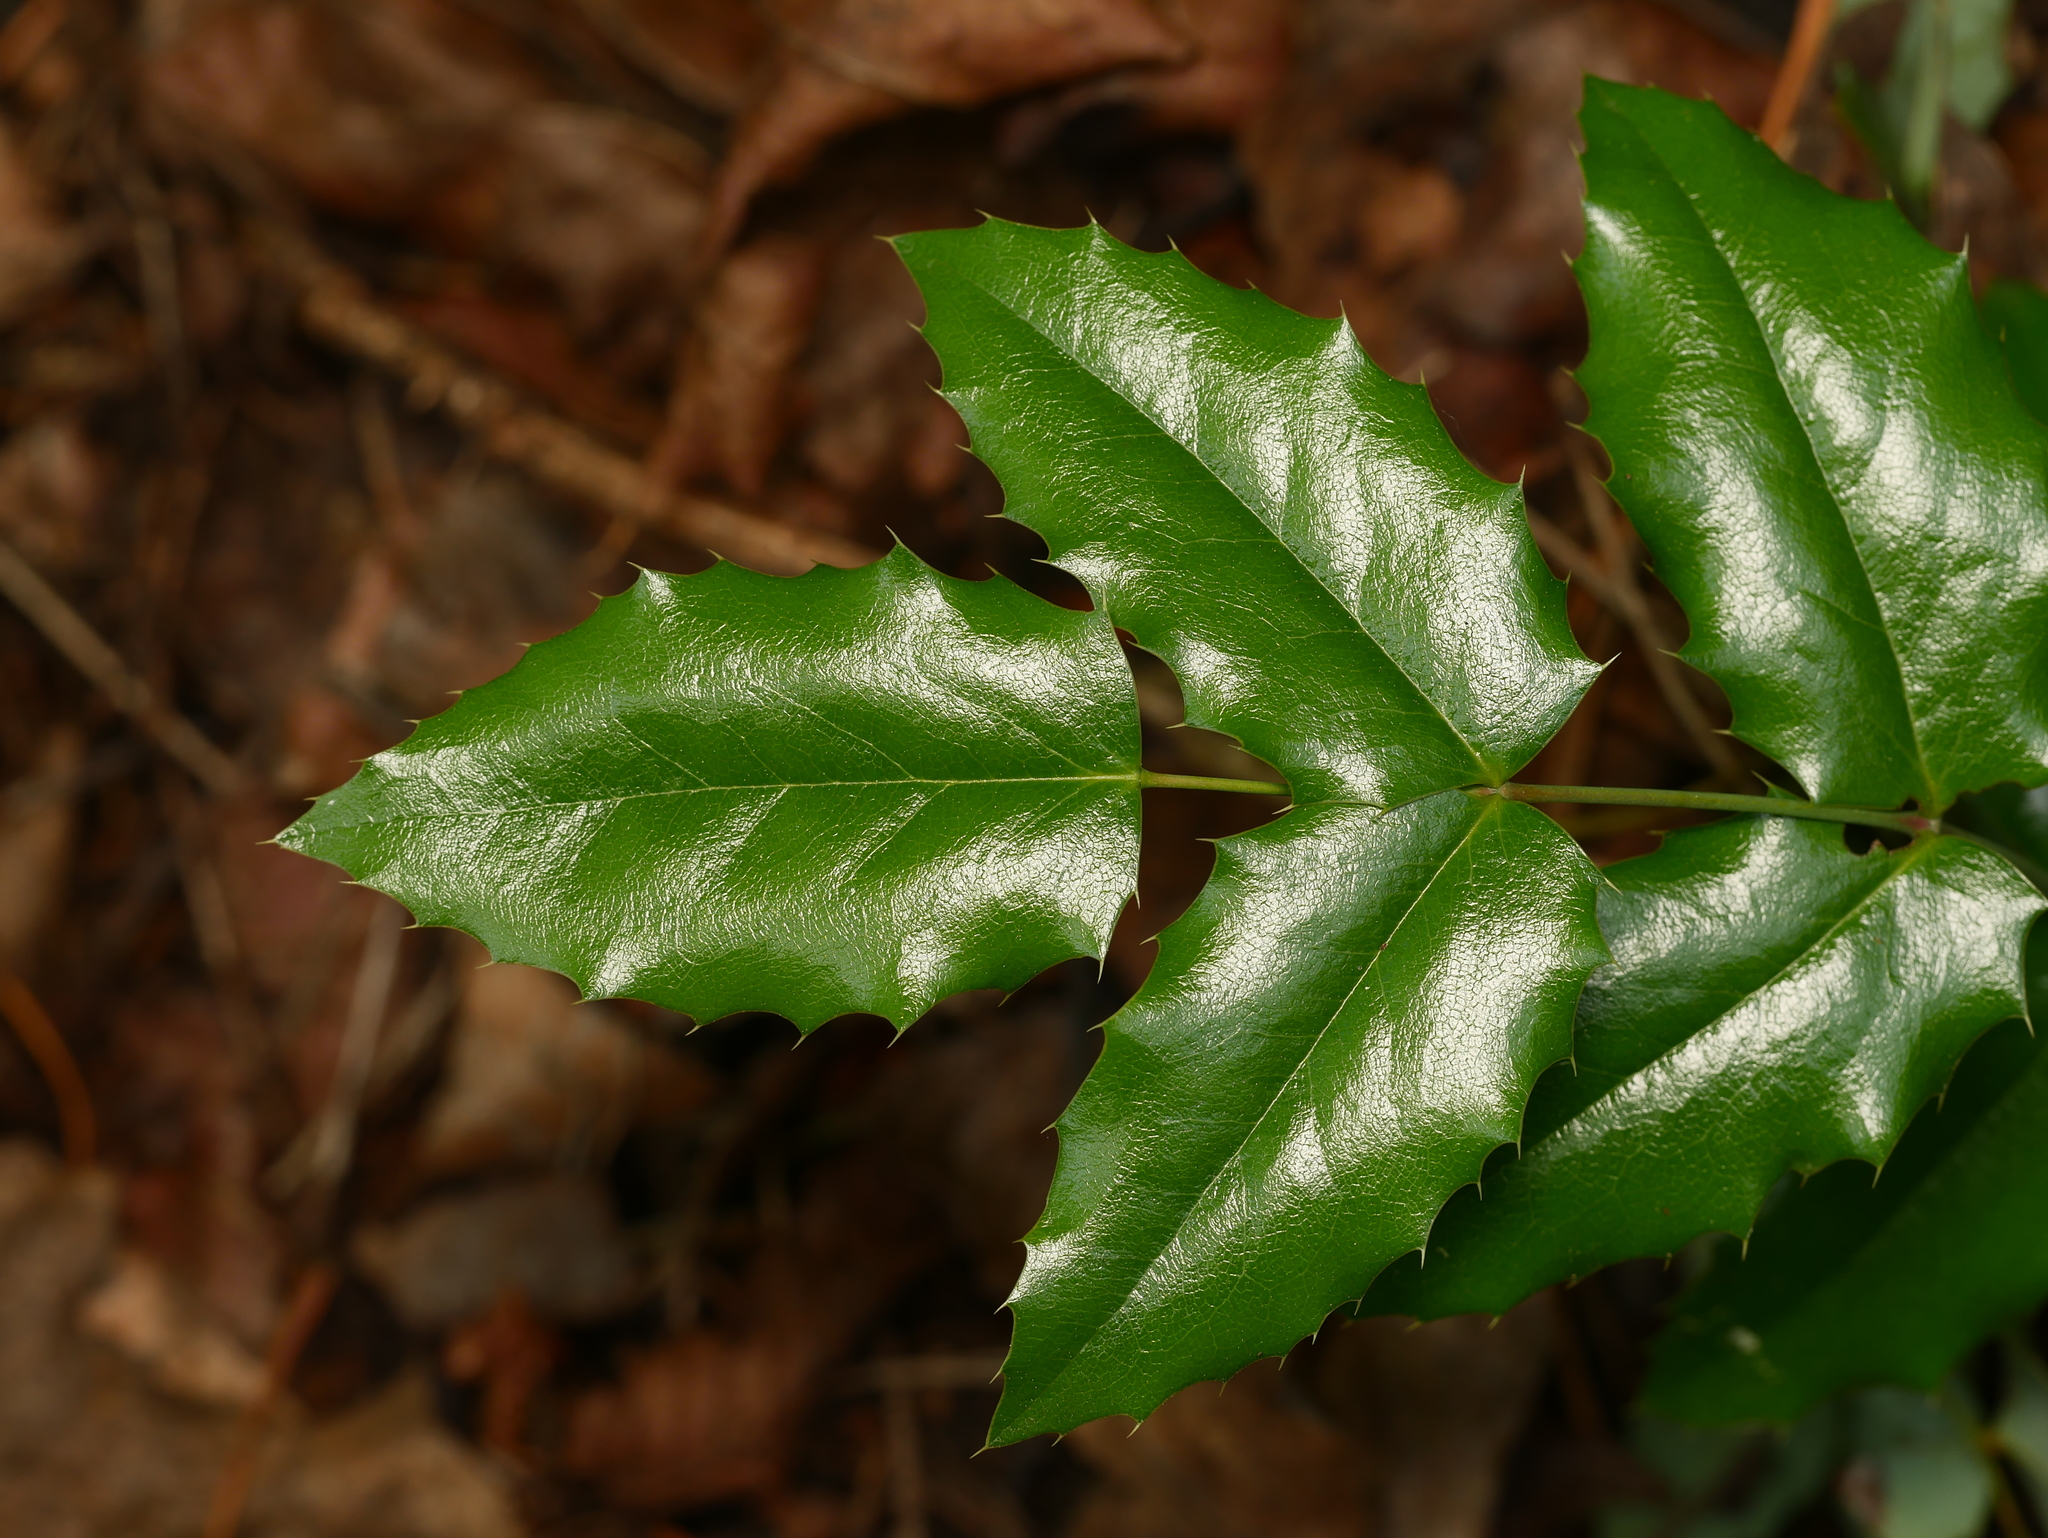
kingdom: Plantae
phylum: Tracheophyta
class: Magnoliopsida
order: Ranunculales
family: Berberidaceae
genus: Mahonia
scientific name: Mahonia aquifolium
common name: Oregon-grape
